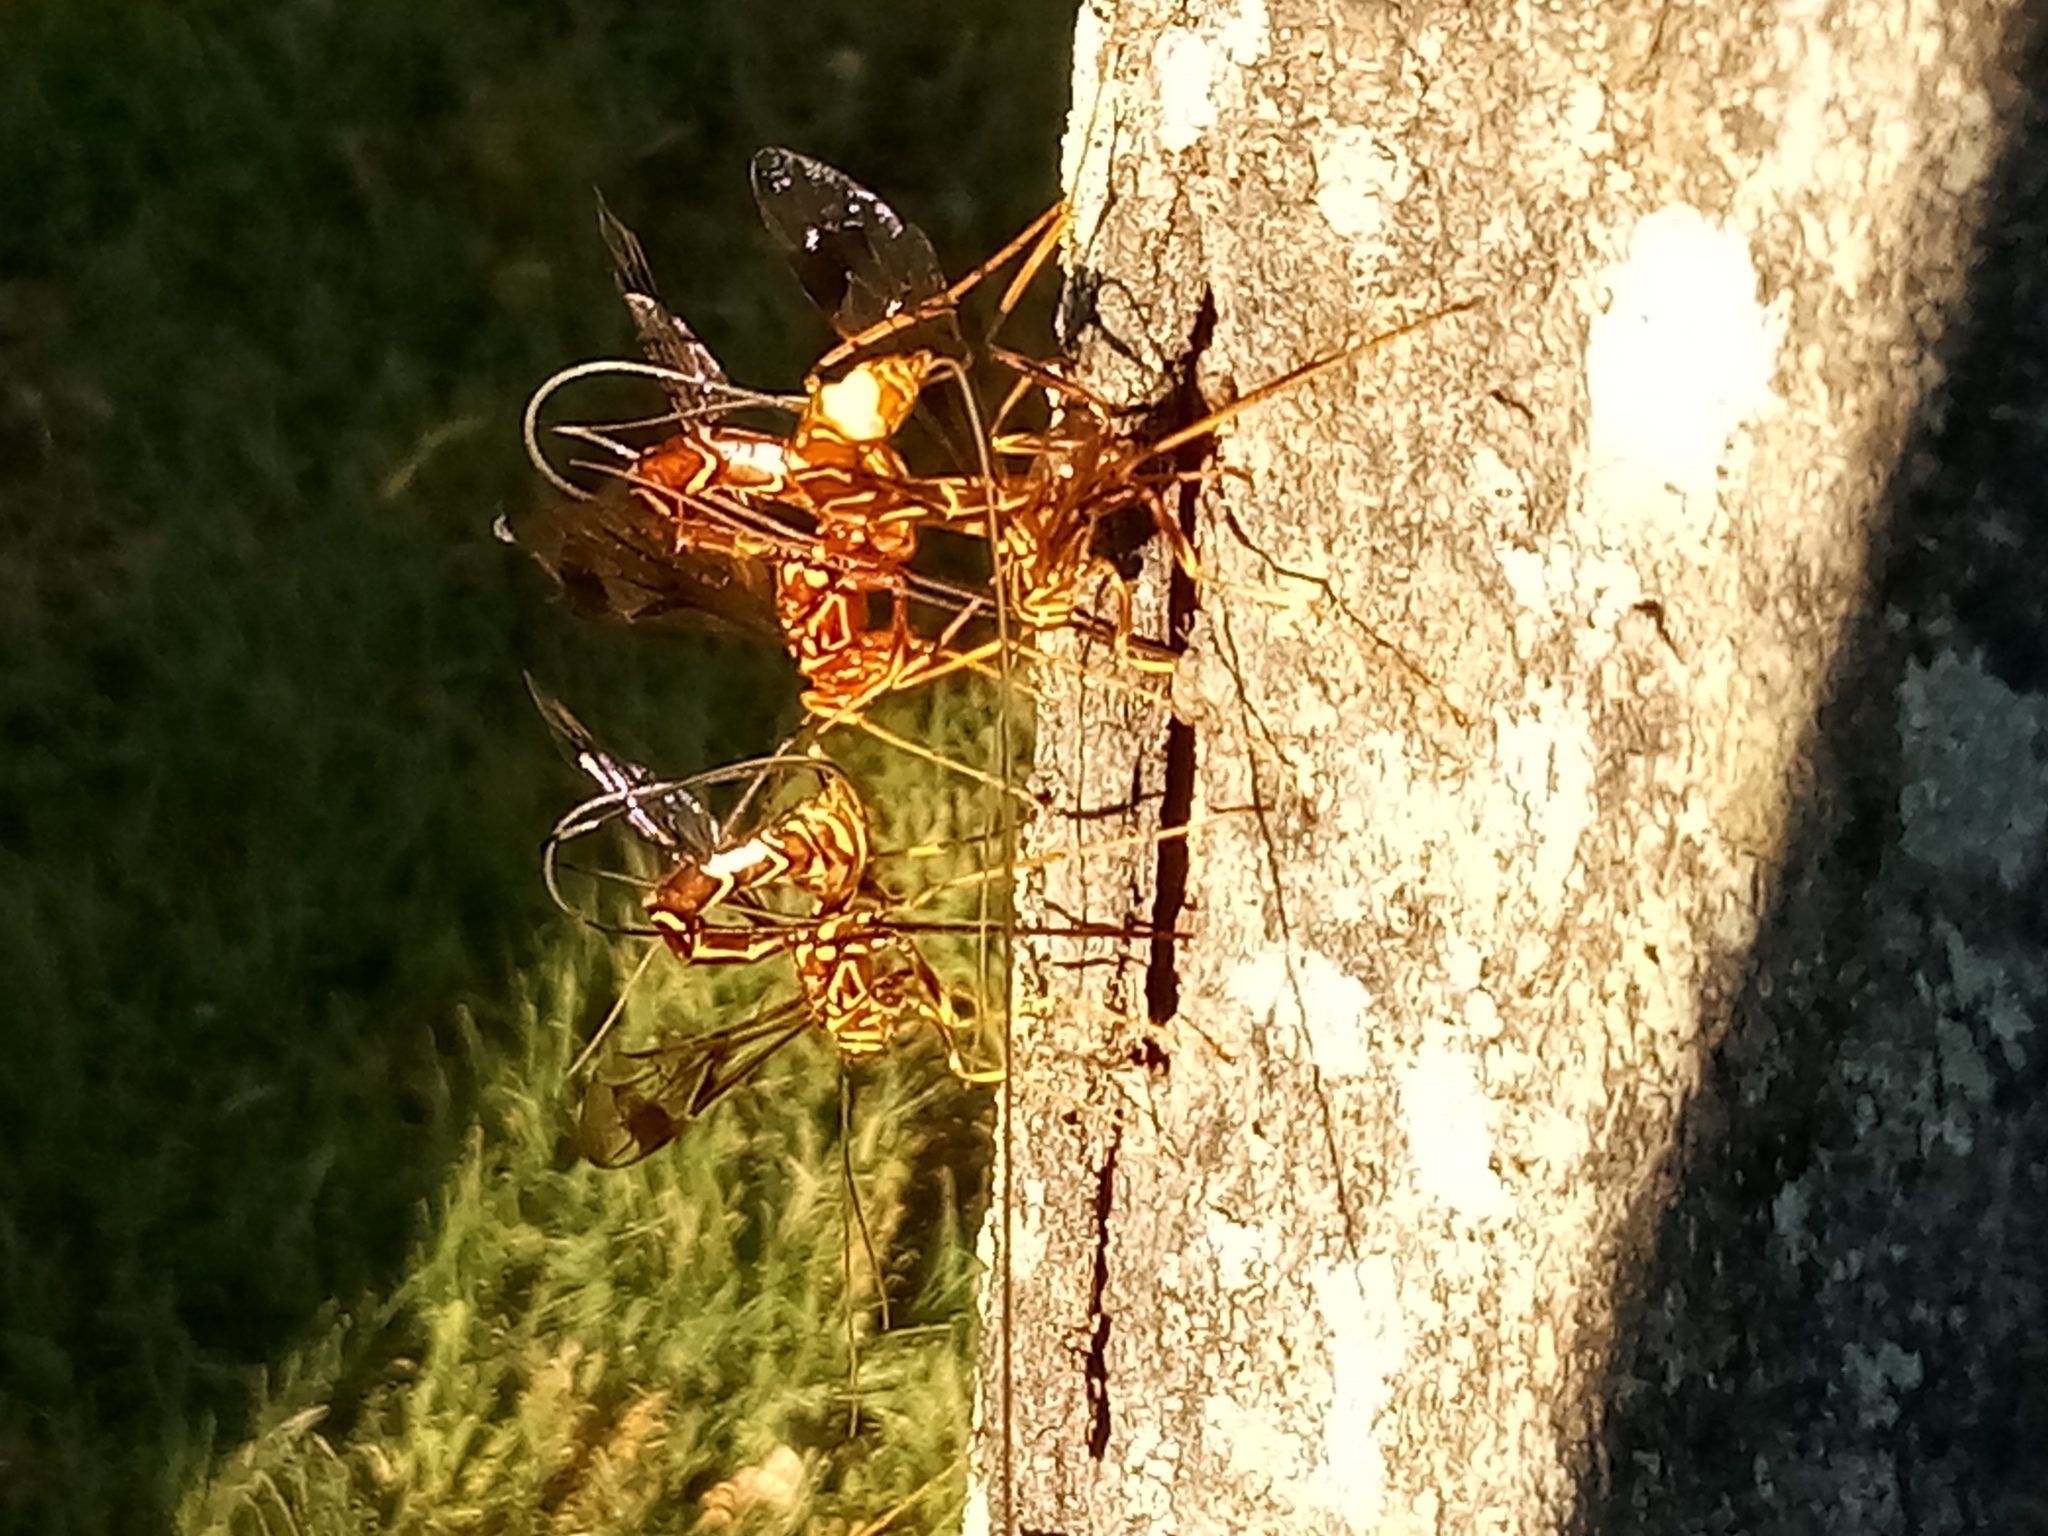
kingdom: Animalia
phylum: Arthropoda
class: Insecta
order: Hymenoptera
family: Ichneumonidae
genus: Megarhyssa
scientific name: Megarhyssa macrura
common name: Long-tailed giant ichneumonid wasp
